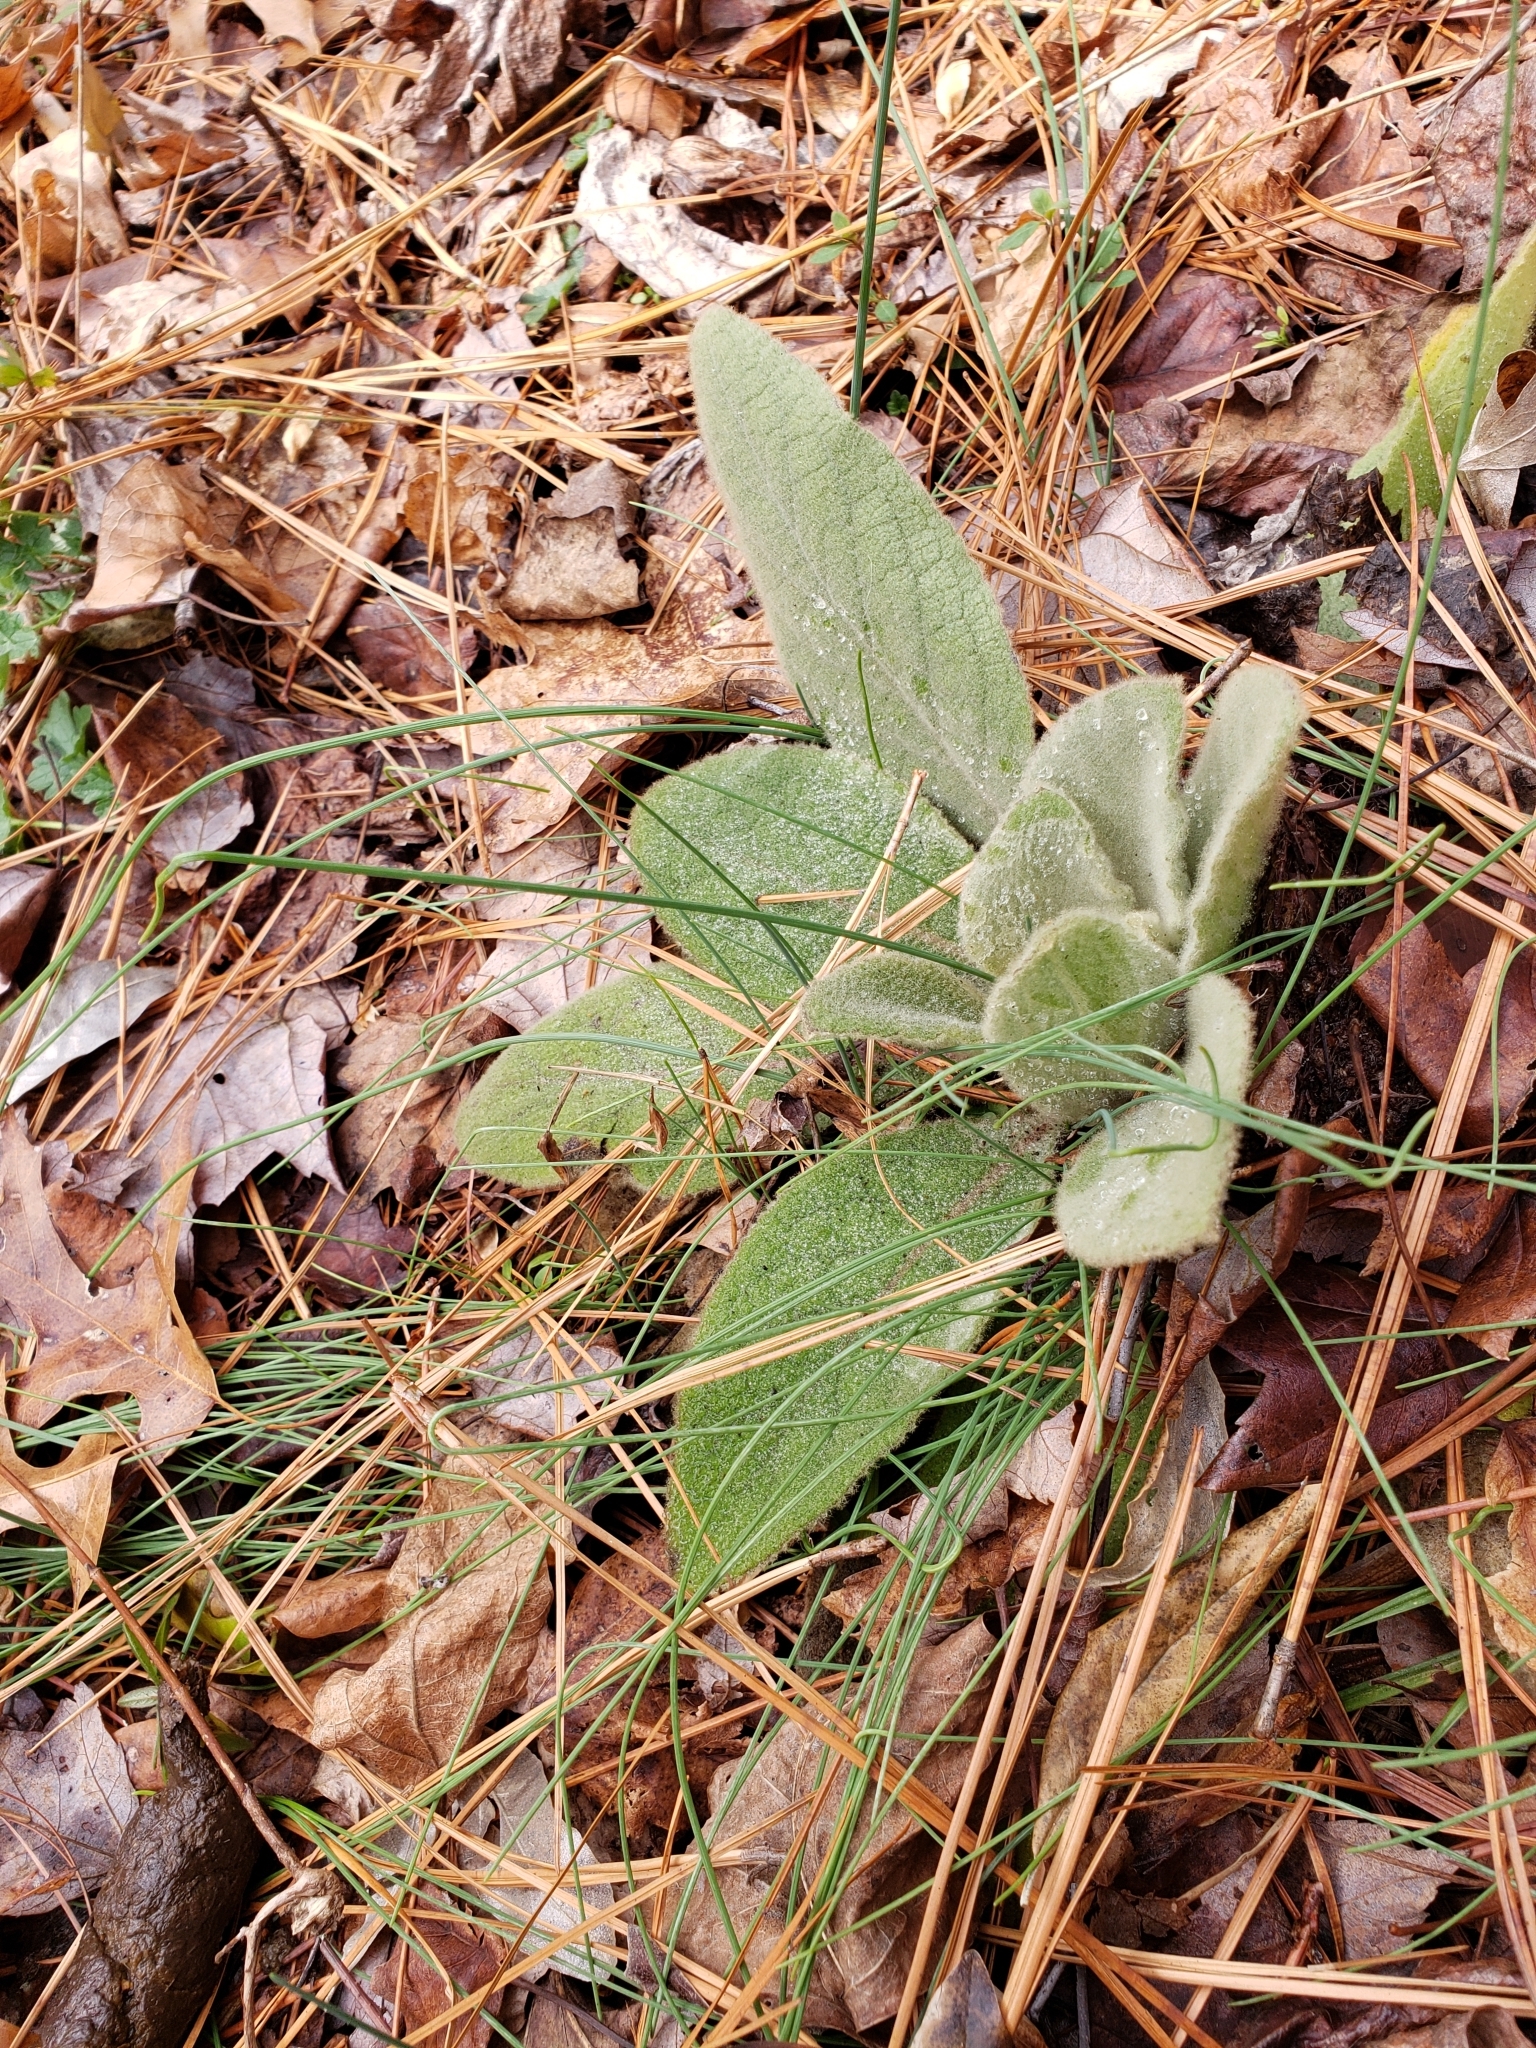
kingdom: Plantae
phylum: Tracheophyta
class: Magnoliopsida
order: Lamiales
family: Scrophulariaceae
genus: Verbascum
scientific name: Verbascum thapsus
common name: Common mullein
